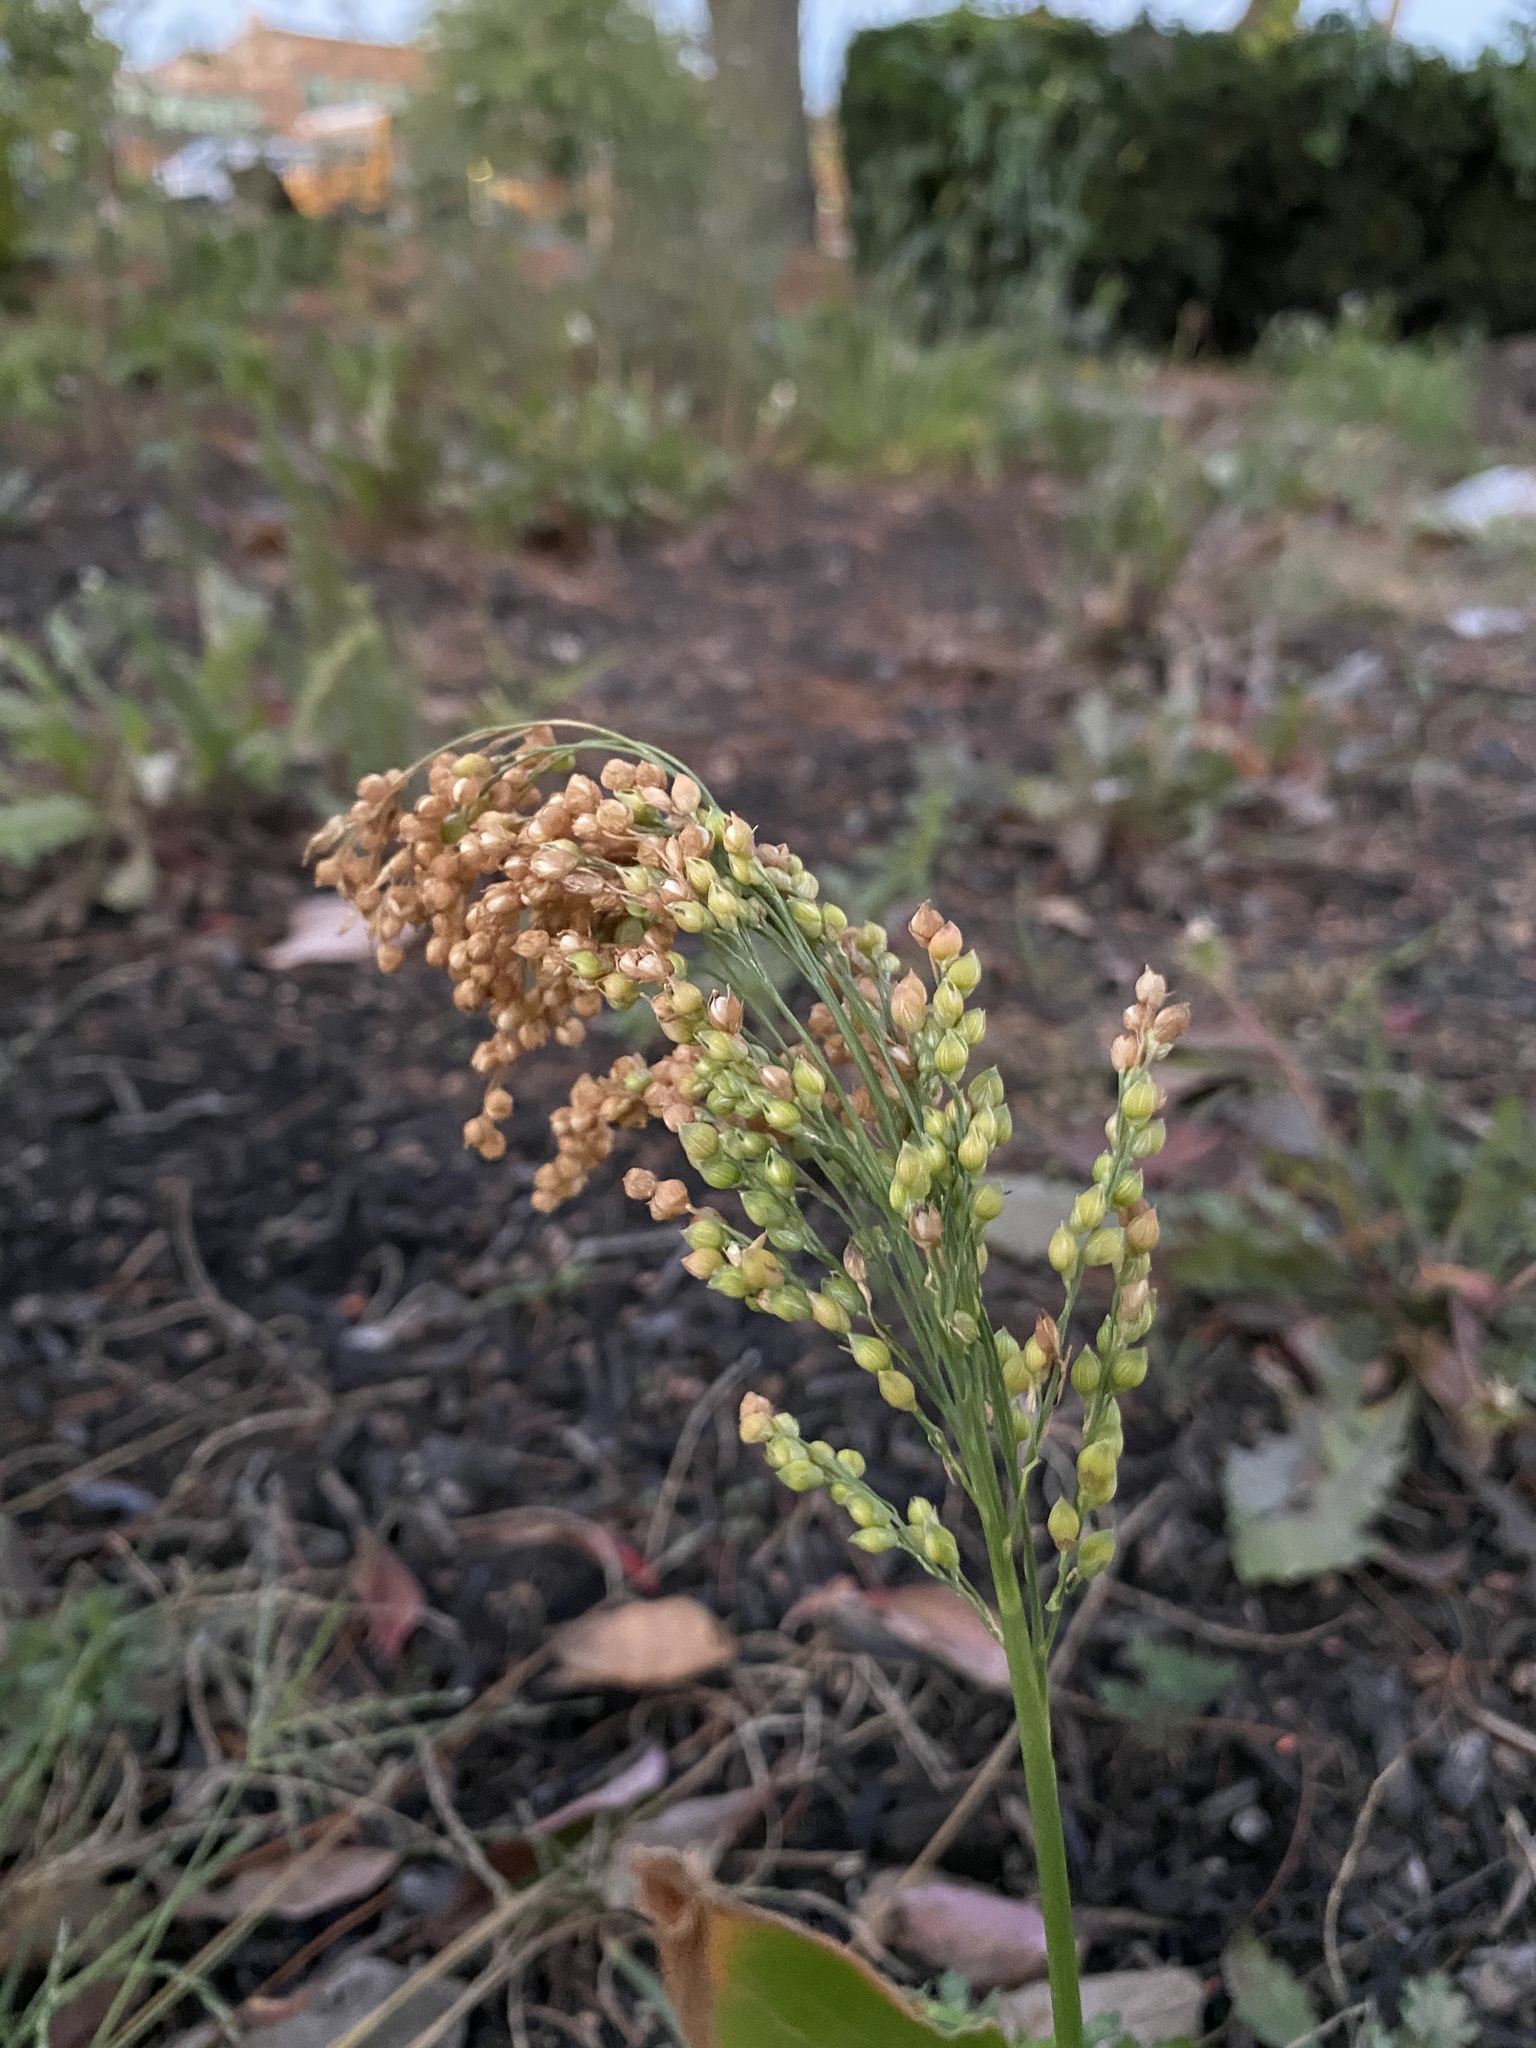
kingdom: Plantae
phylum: Tracheophyta
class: Liliopsida
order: Poales
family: Poaceae
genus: Panicum
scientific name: Panicum miliaceum
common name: Common millet
